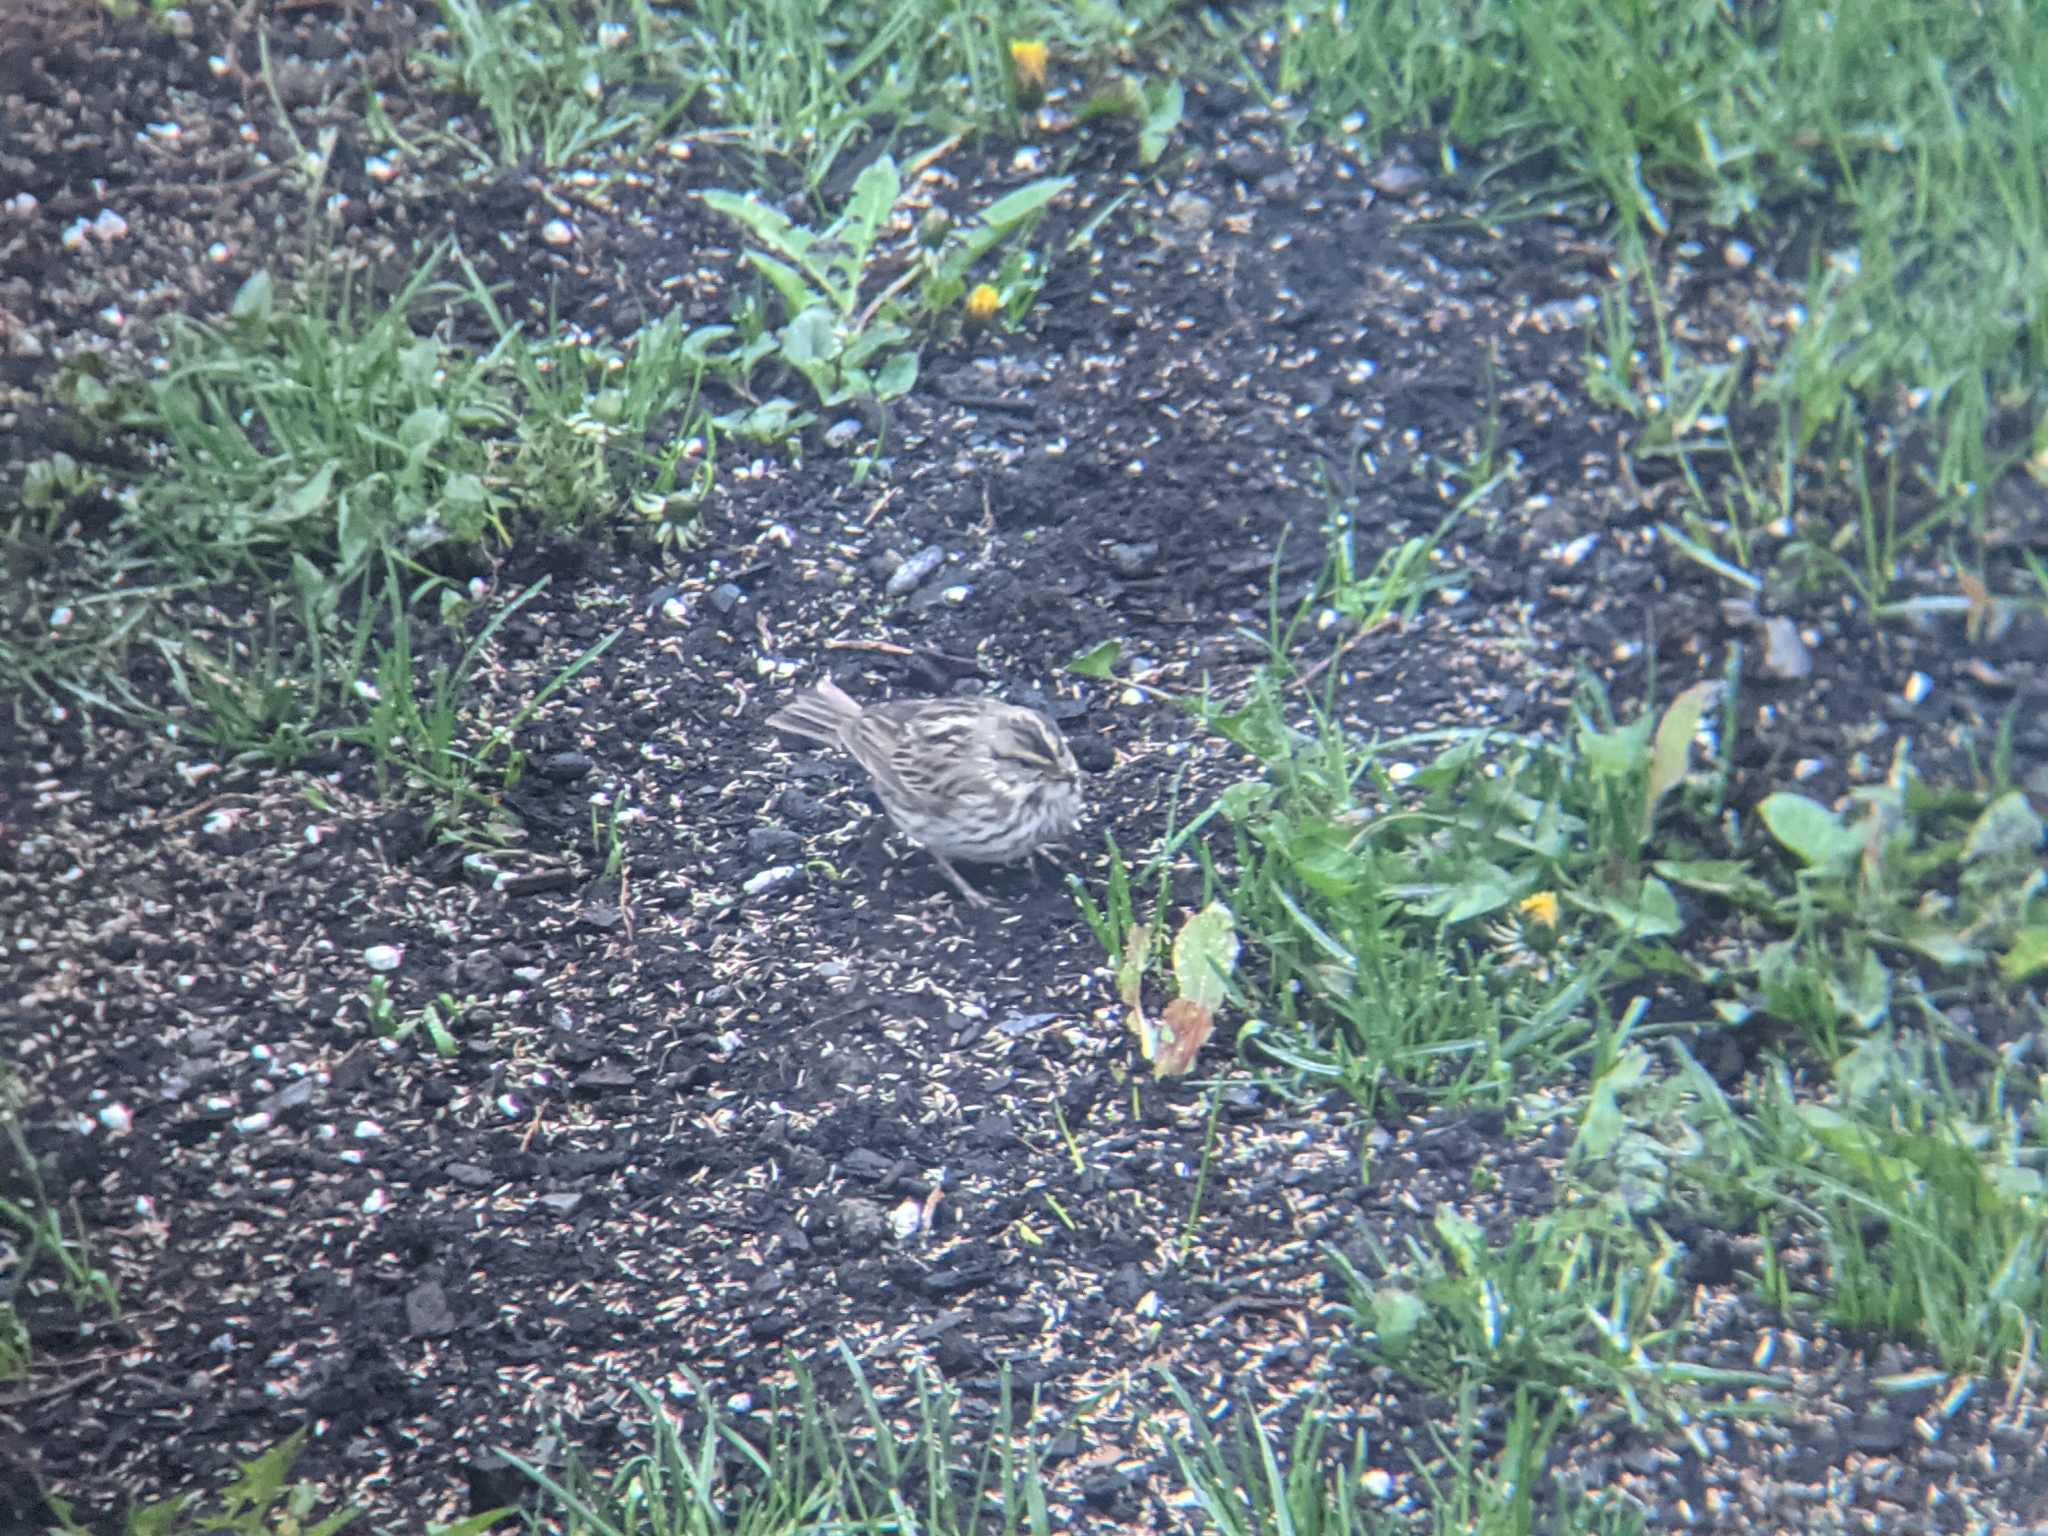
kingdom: Animalia
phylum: Chordata
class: Aves
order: Passeriformes
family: Passerellidae
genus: Passerculus
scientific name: Passerculus sandwichensis
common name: Savannah sparrow
